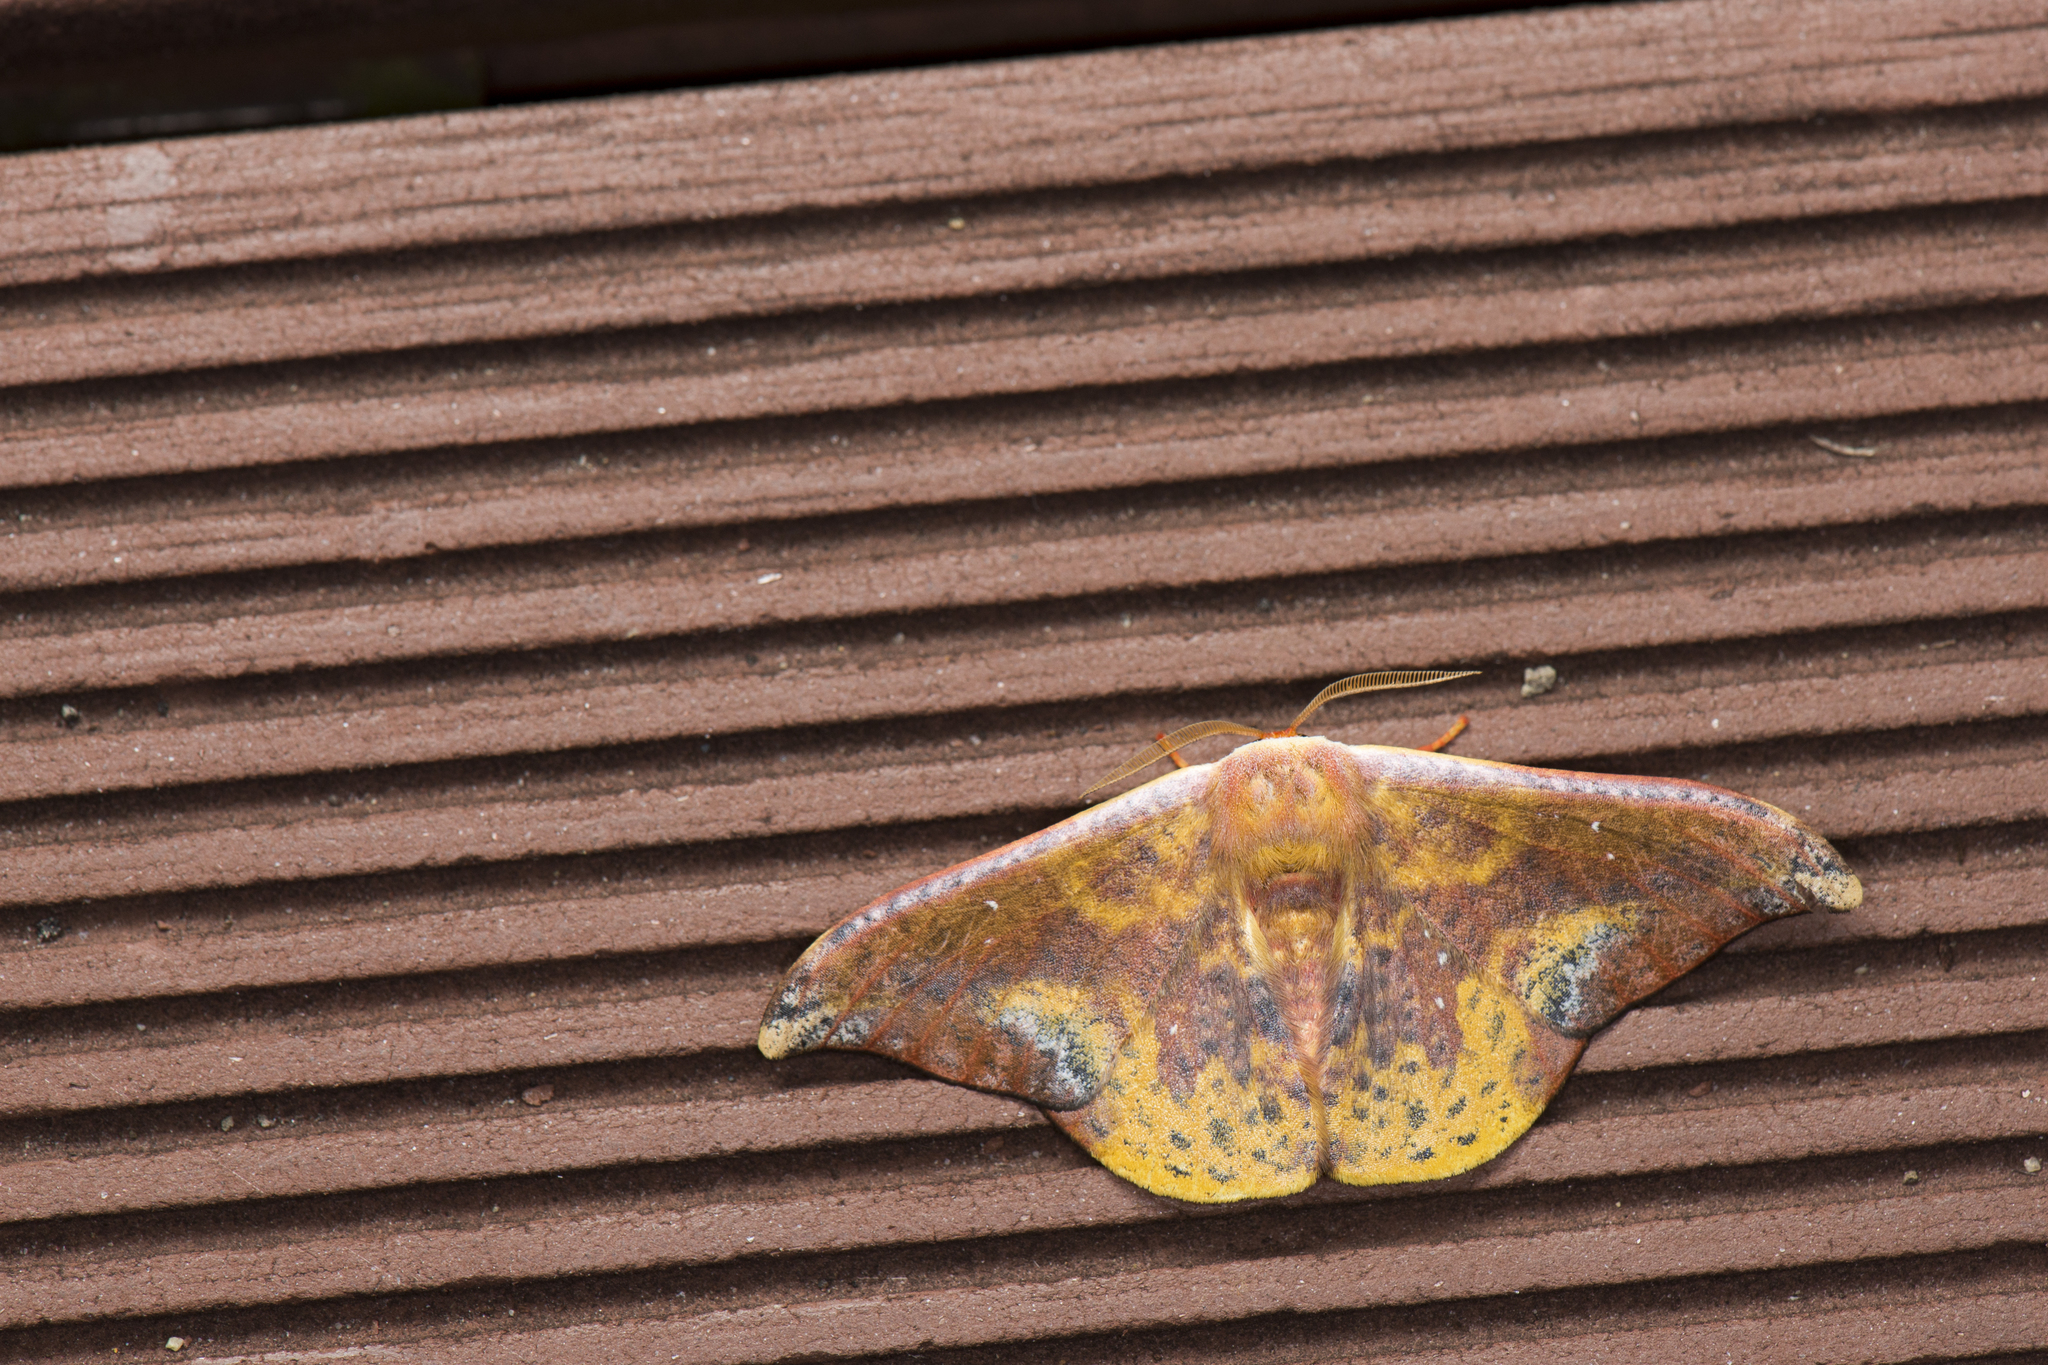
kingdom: Animalia
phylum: Arthropoda
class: Insecta
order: Lepidoptera
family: Drepanidae
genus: Oreta
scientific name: Oreta fuscopurpurea
